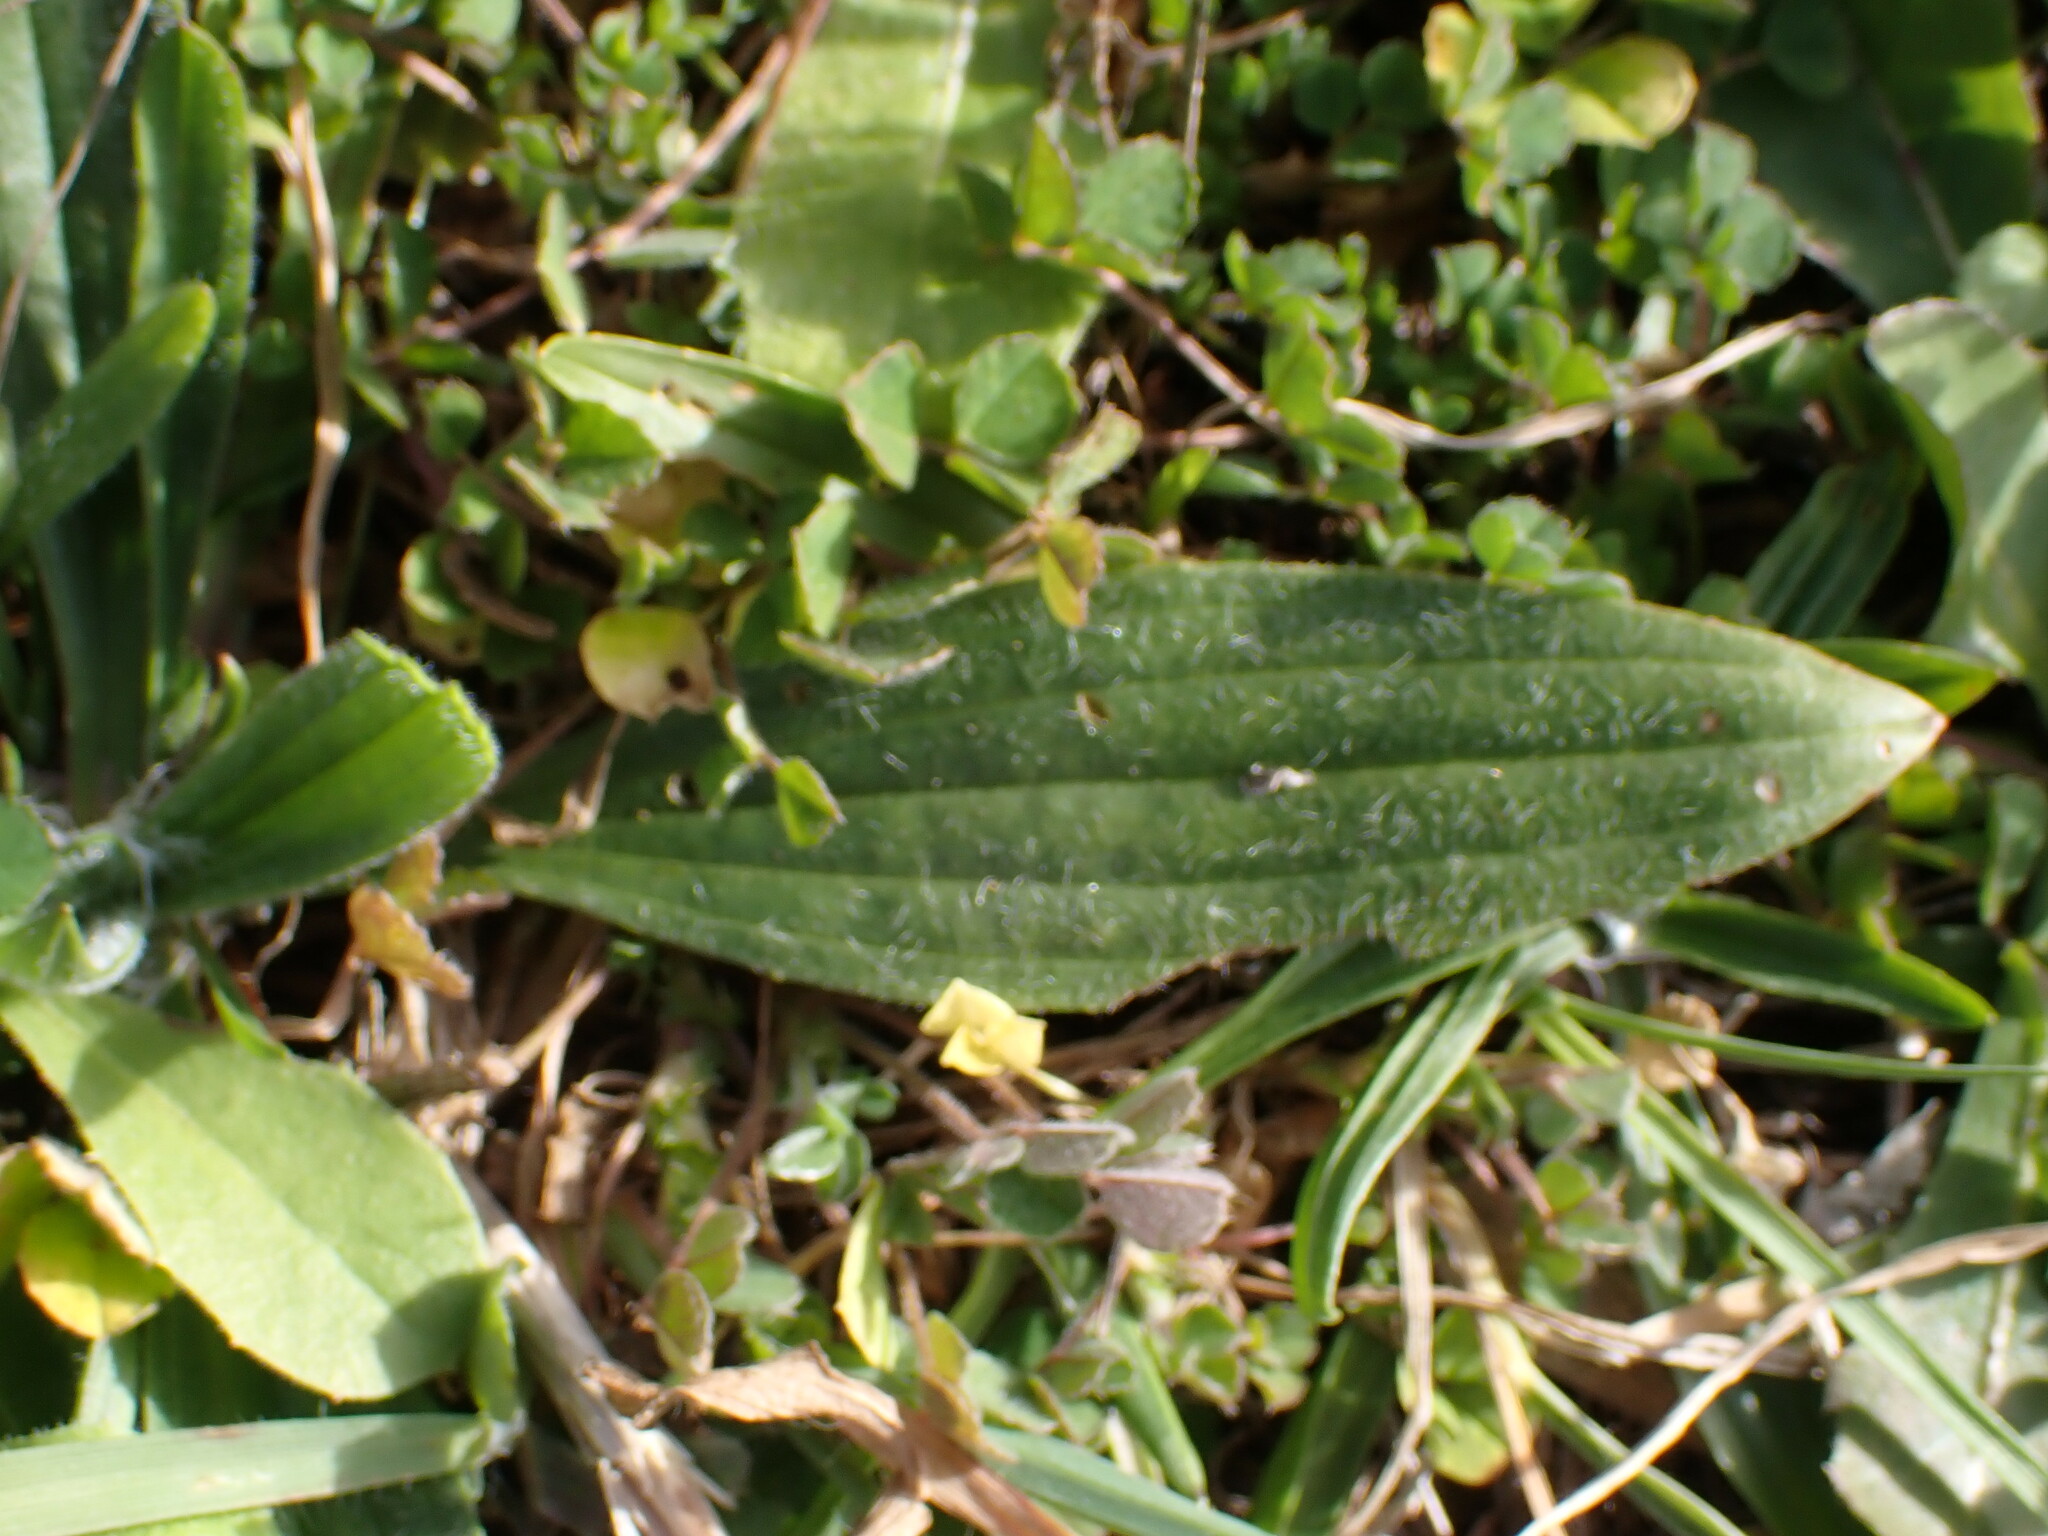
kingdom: Plantae
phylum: Tracheophyta
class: Magnoliopsida
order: Lamiales
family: Plantaginaceae
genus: Plantago
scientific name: Plantago lanceolata
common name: Ribwort plantain
